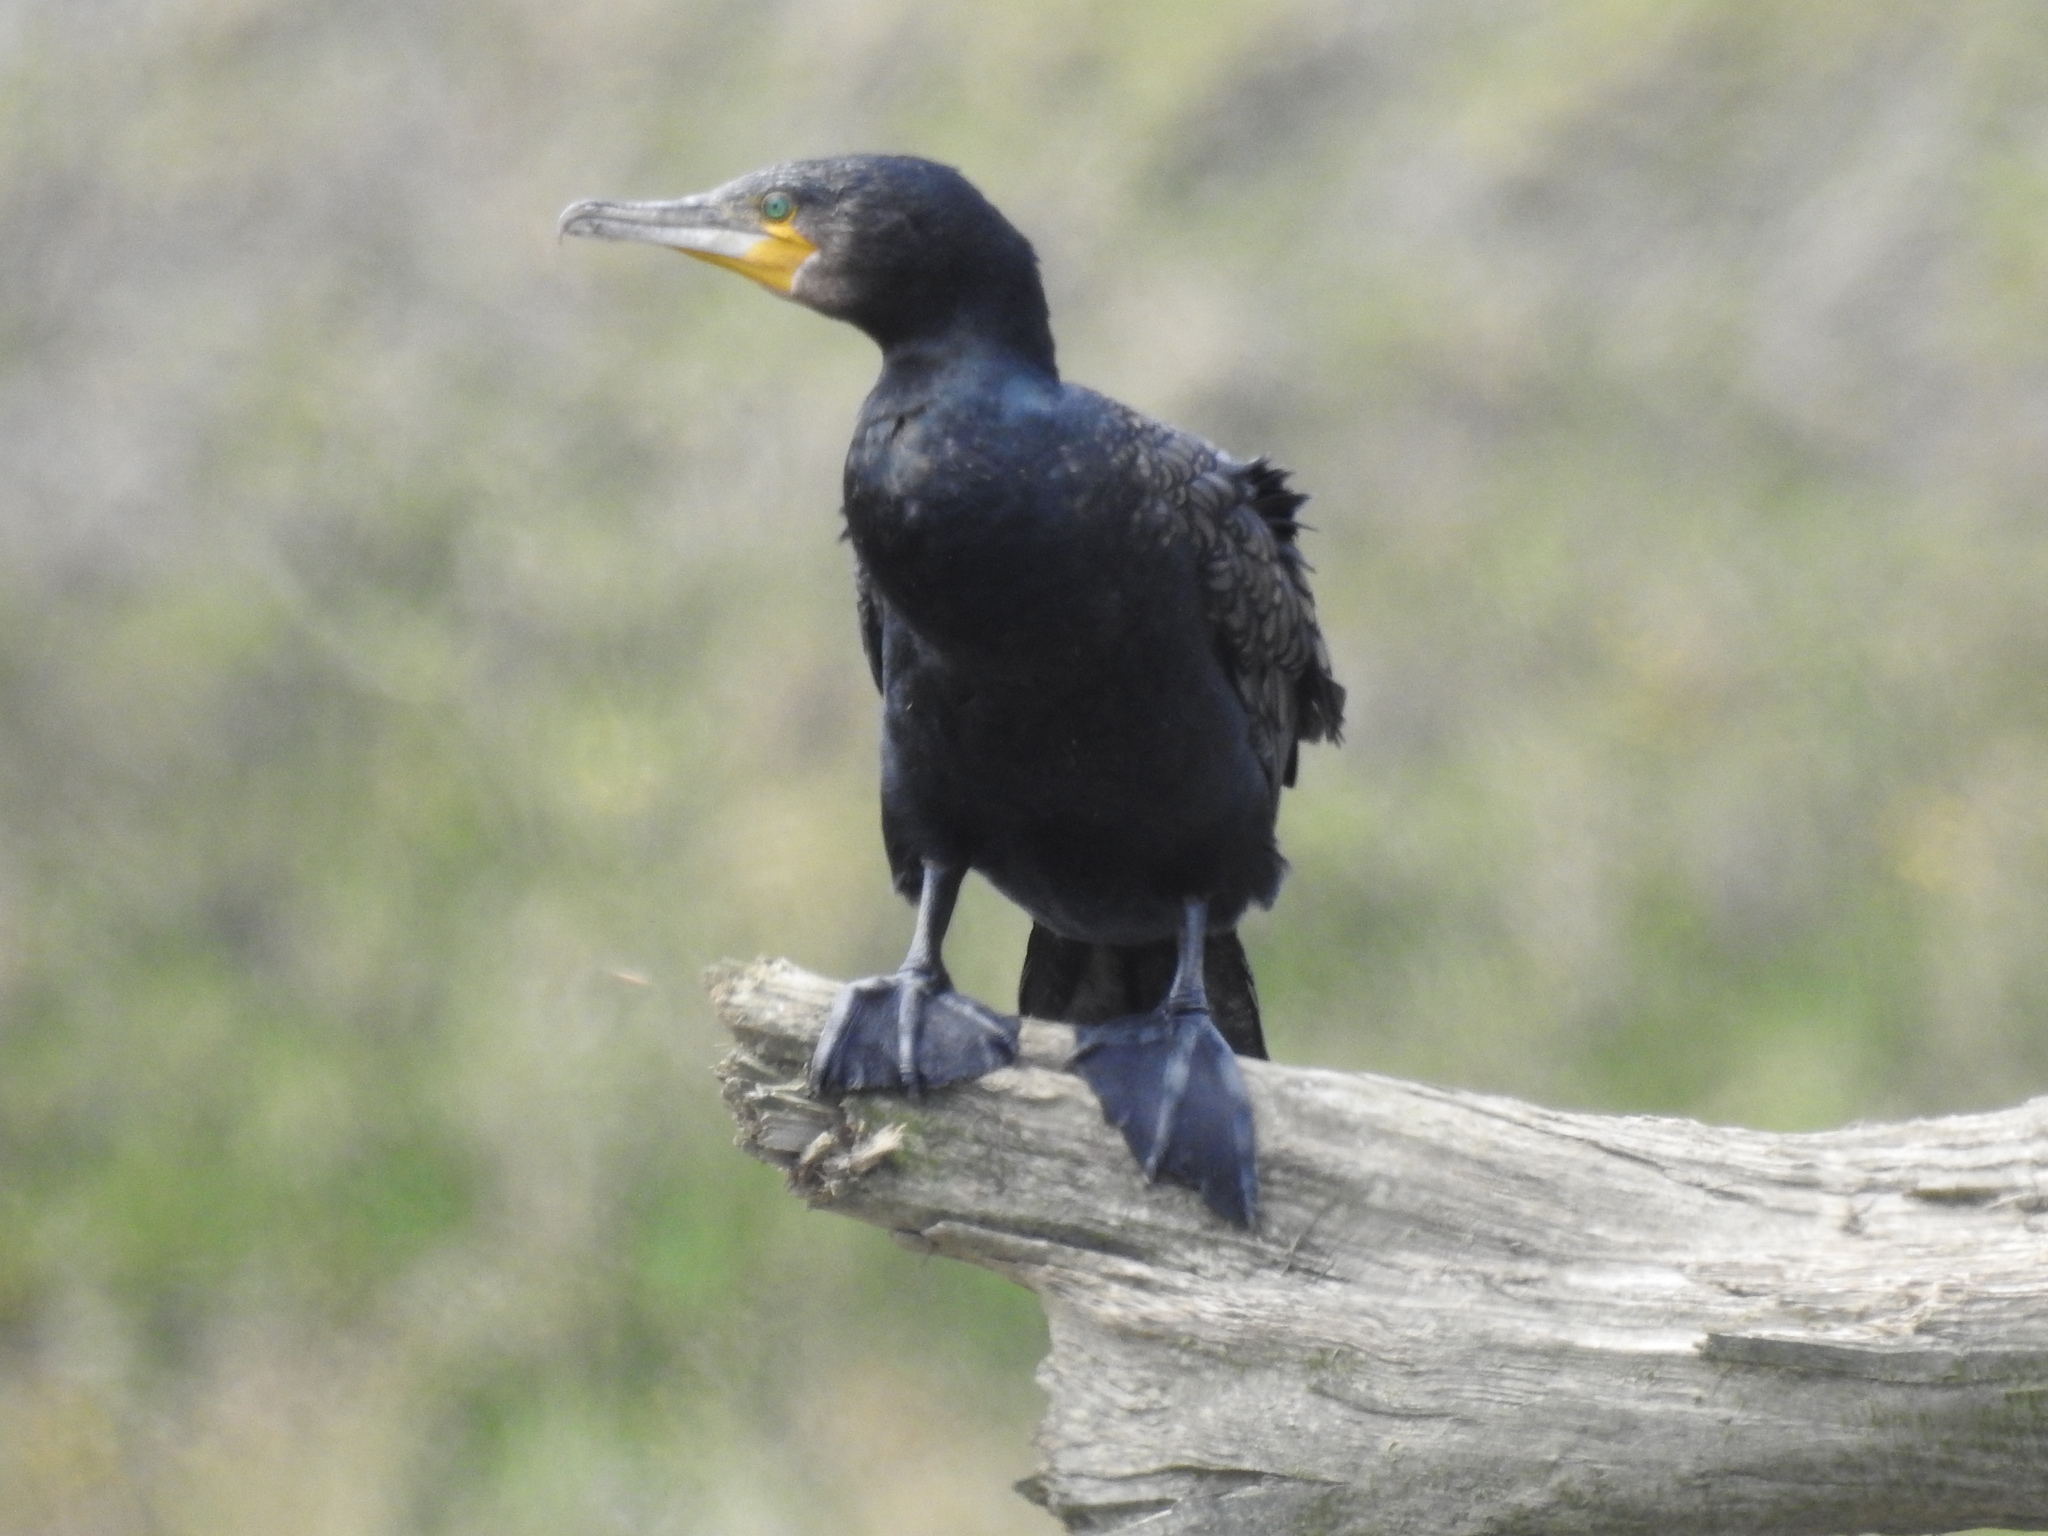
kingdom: Animalia
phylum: Chordata
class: Aves
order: Suliformes
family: Phalacrocoracidae
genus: Phalacrocorax
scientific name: Phalacrocorax carbo
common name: Great cormorant
